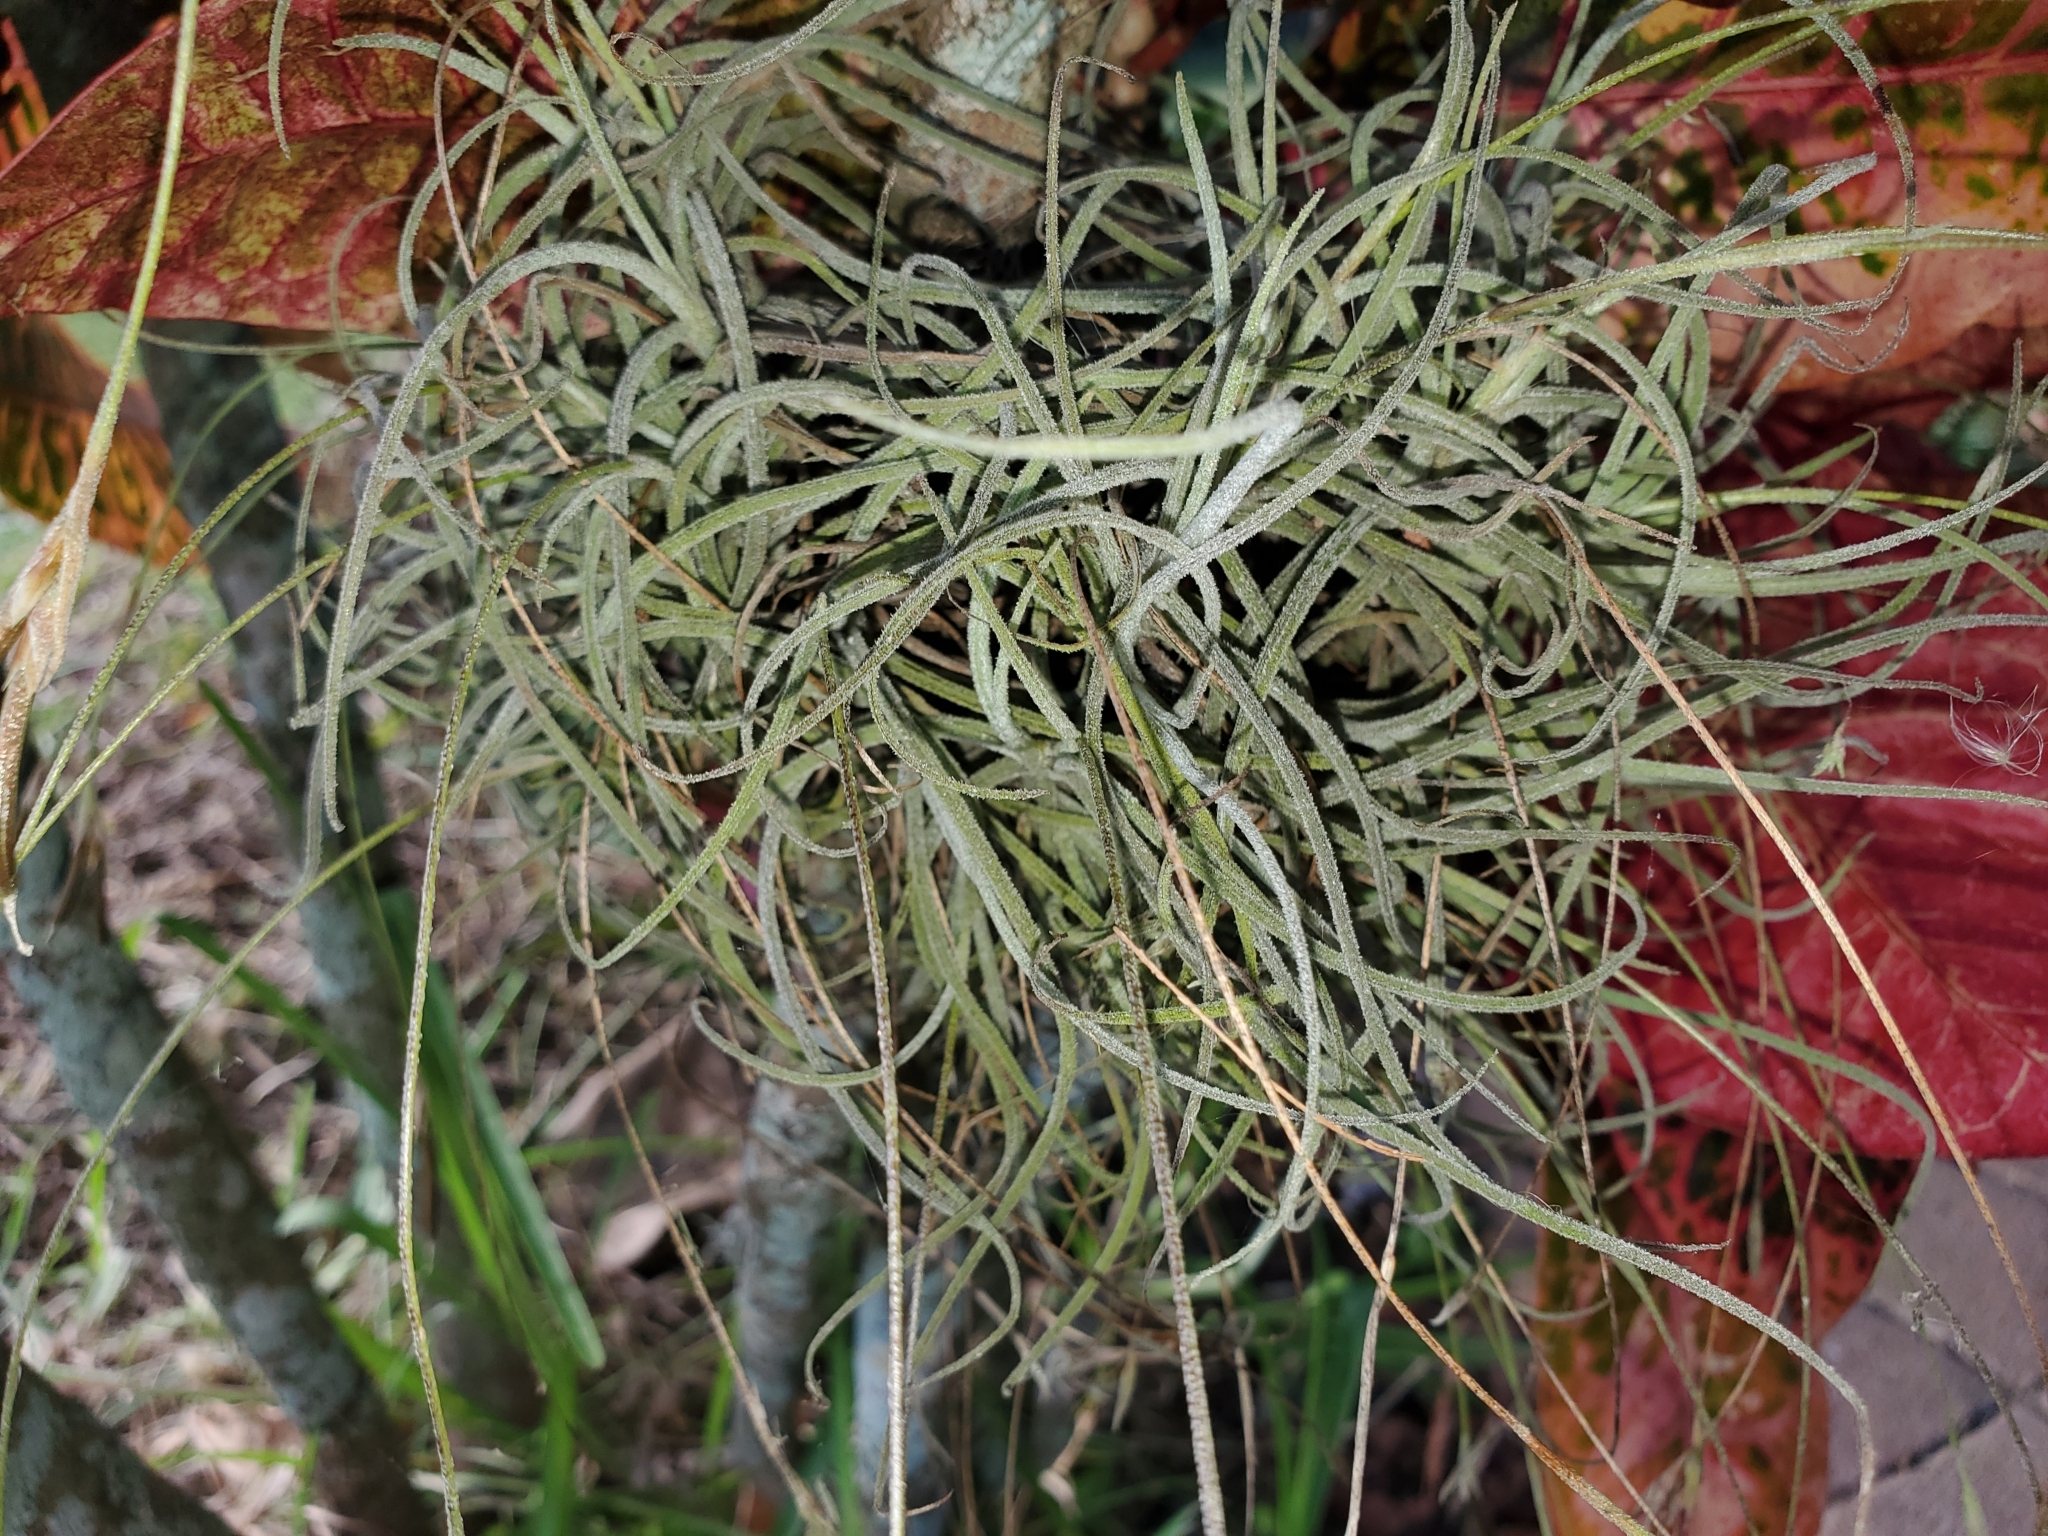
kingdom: Plantae
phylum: Tracheophyta
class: Liliopsida
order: Poales
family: Bromeliaceae
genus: Tillandsia
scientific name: Tillandsia recurvata
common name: Small ballmoss
